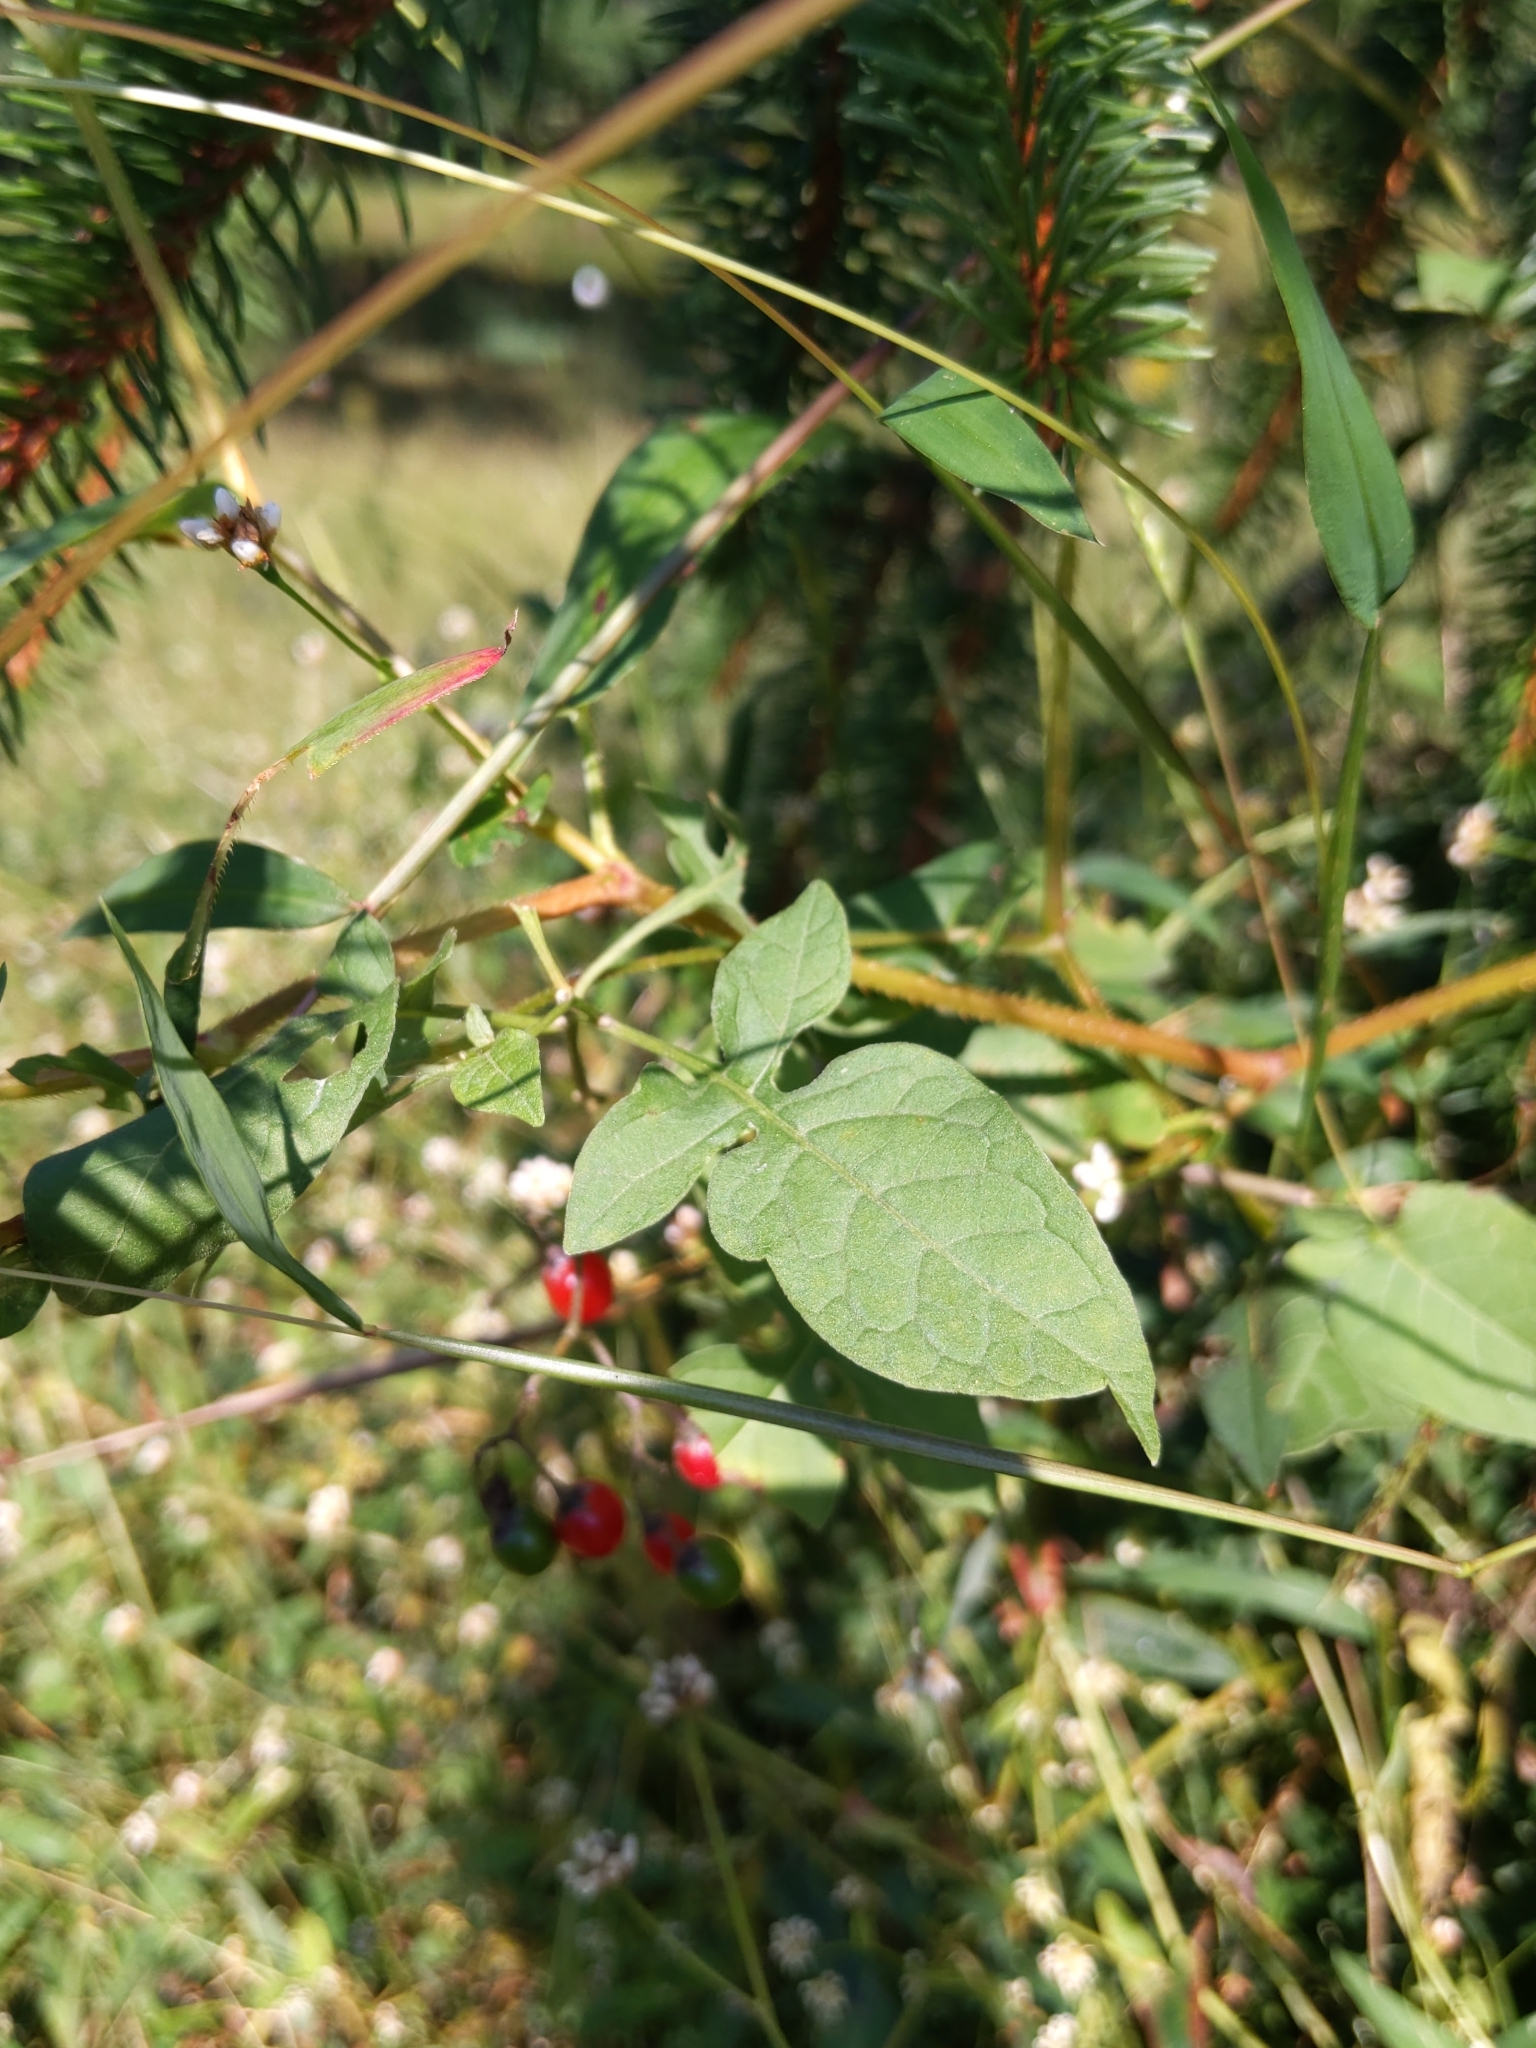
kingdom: Plantae
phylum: Tracheophyta
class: Magnoliopsida
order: Solanales
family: Solanaceae
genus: Solanum
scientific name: Solanum dulcamara
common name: Climbing nightshade
